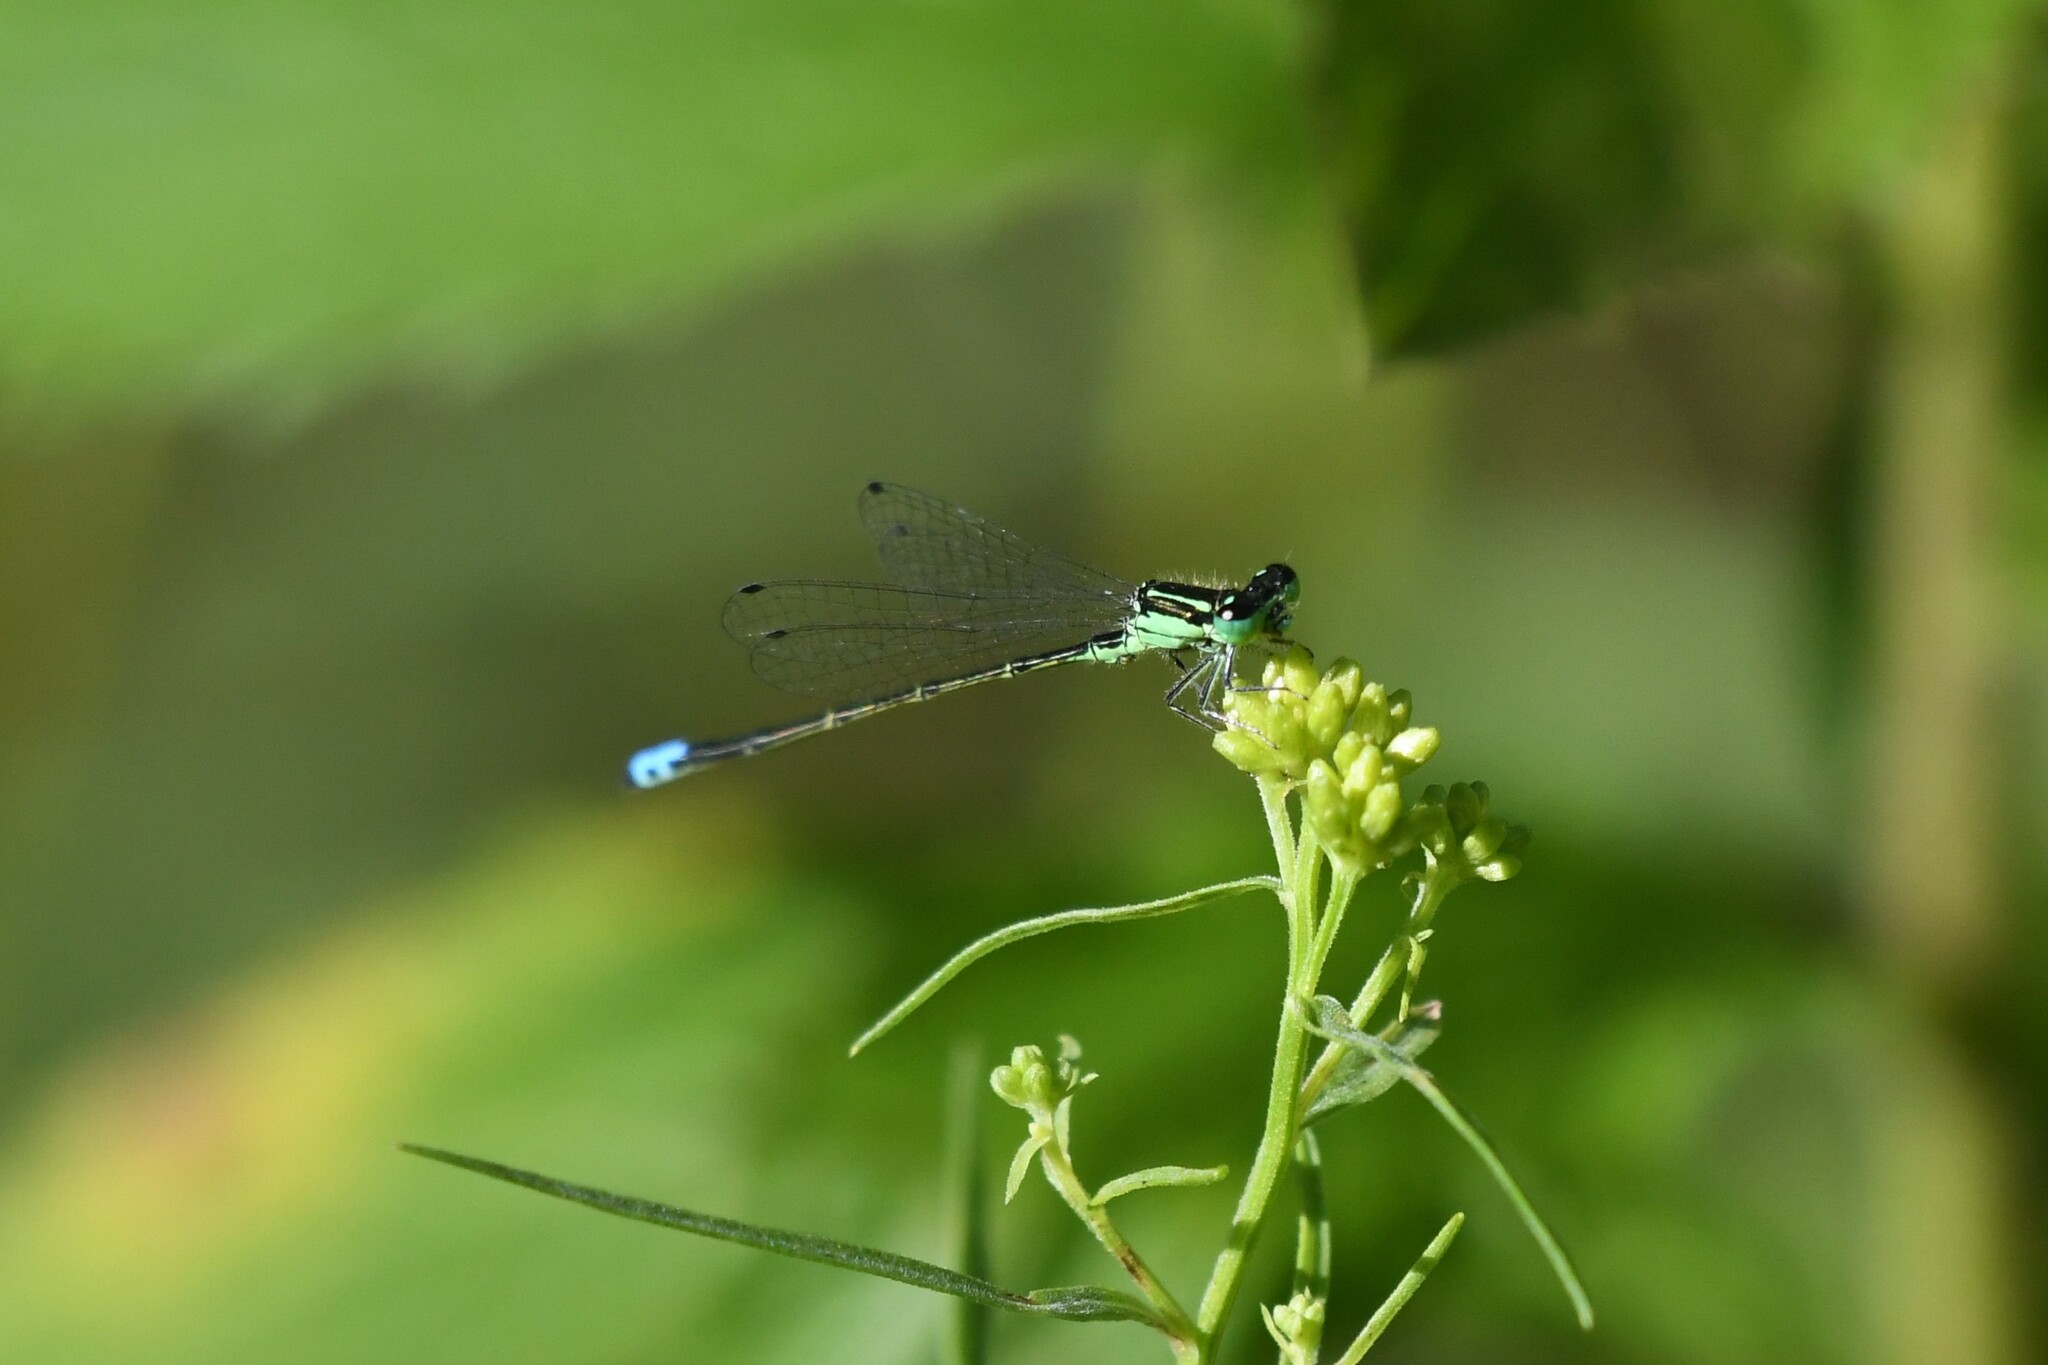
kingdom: Animalia
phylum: Arthropoda
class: Insecta
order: Odonata
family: Coenagrionidae
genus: Ischnura
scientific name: Ischnura verticalis
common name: Eastern forktail
